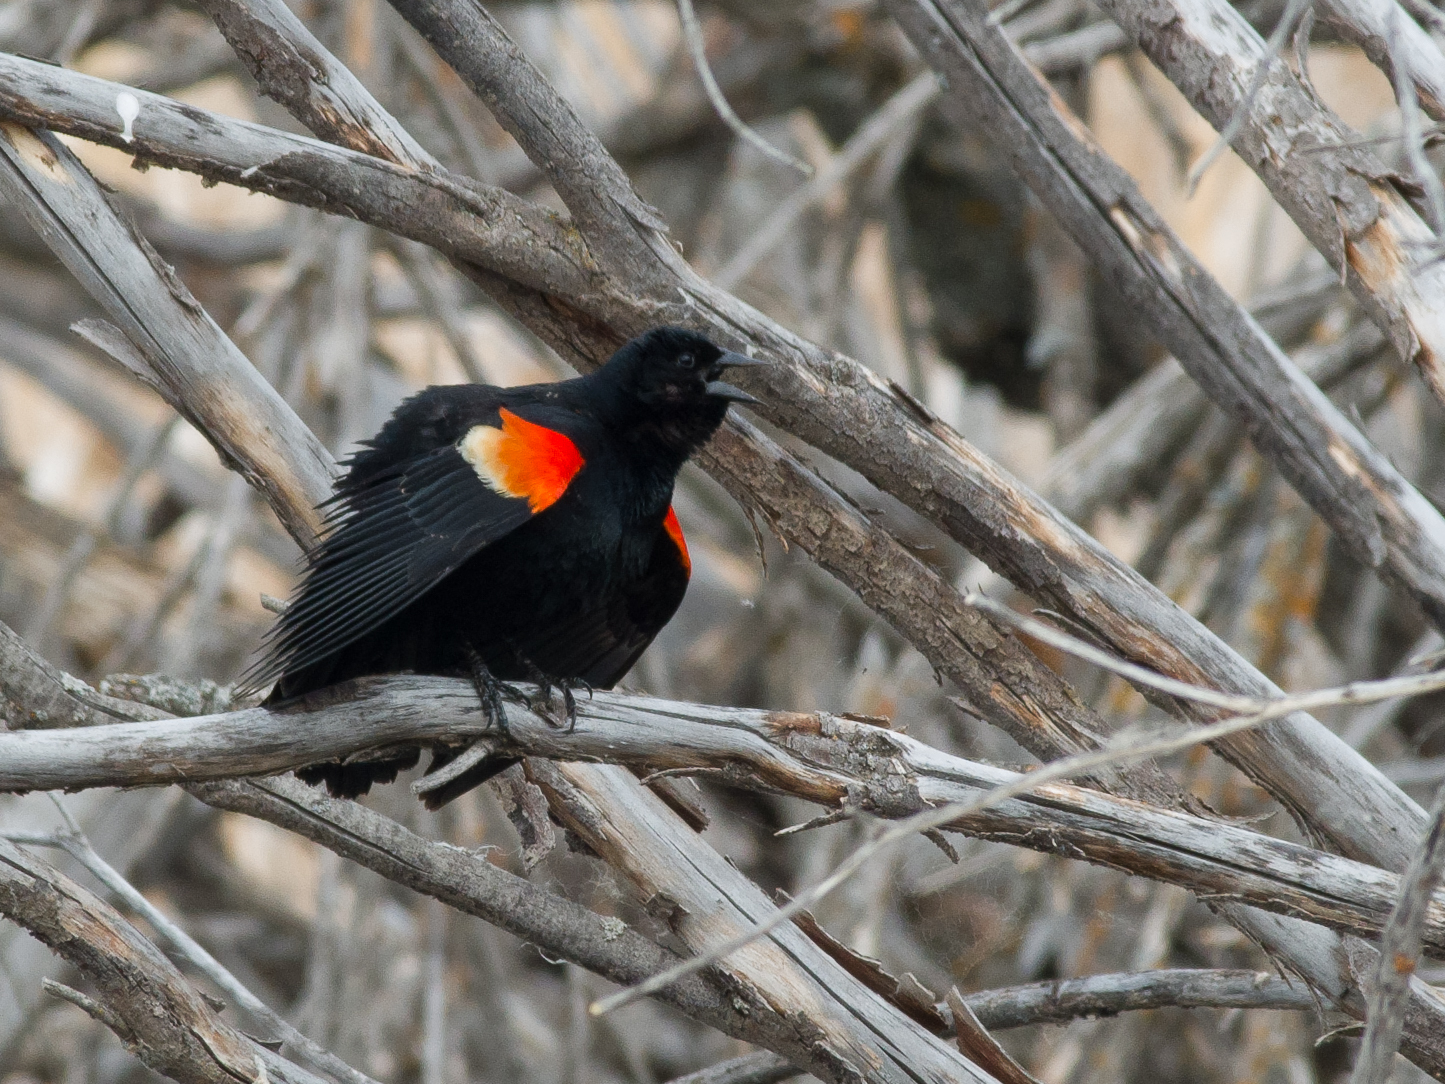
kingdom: Animalia
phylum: Chordata
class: Aves
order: Passeriformes
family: Icteridae
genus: Agelaius
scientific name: Agelaius phoeniceus
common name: Red-winged blackbird
